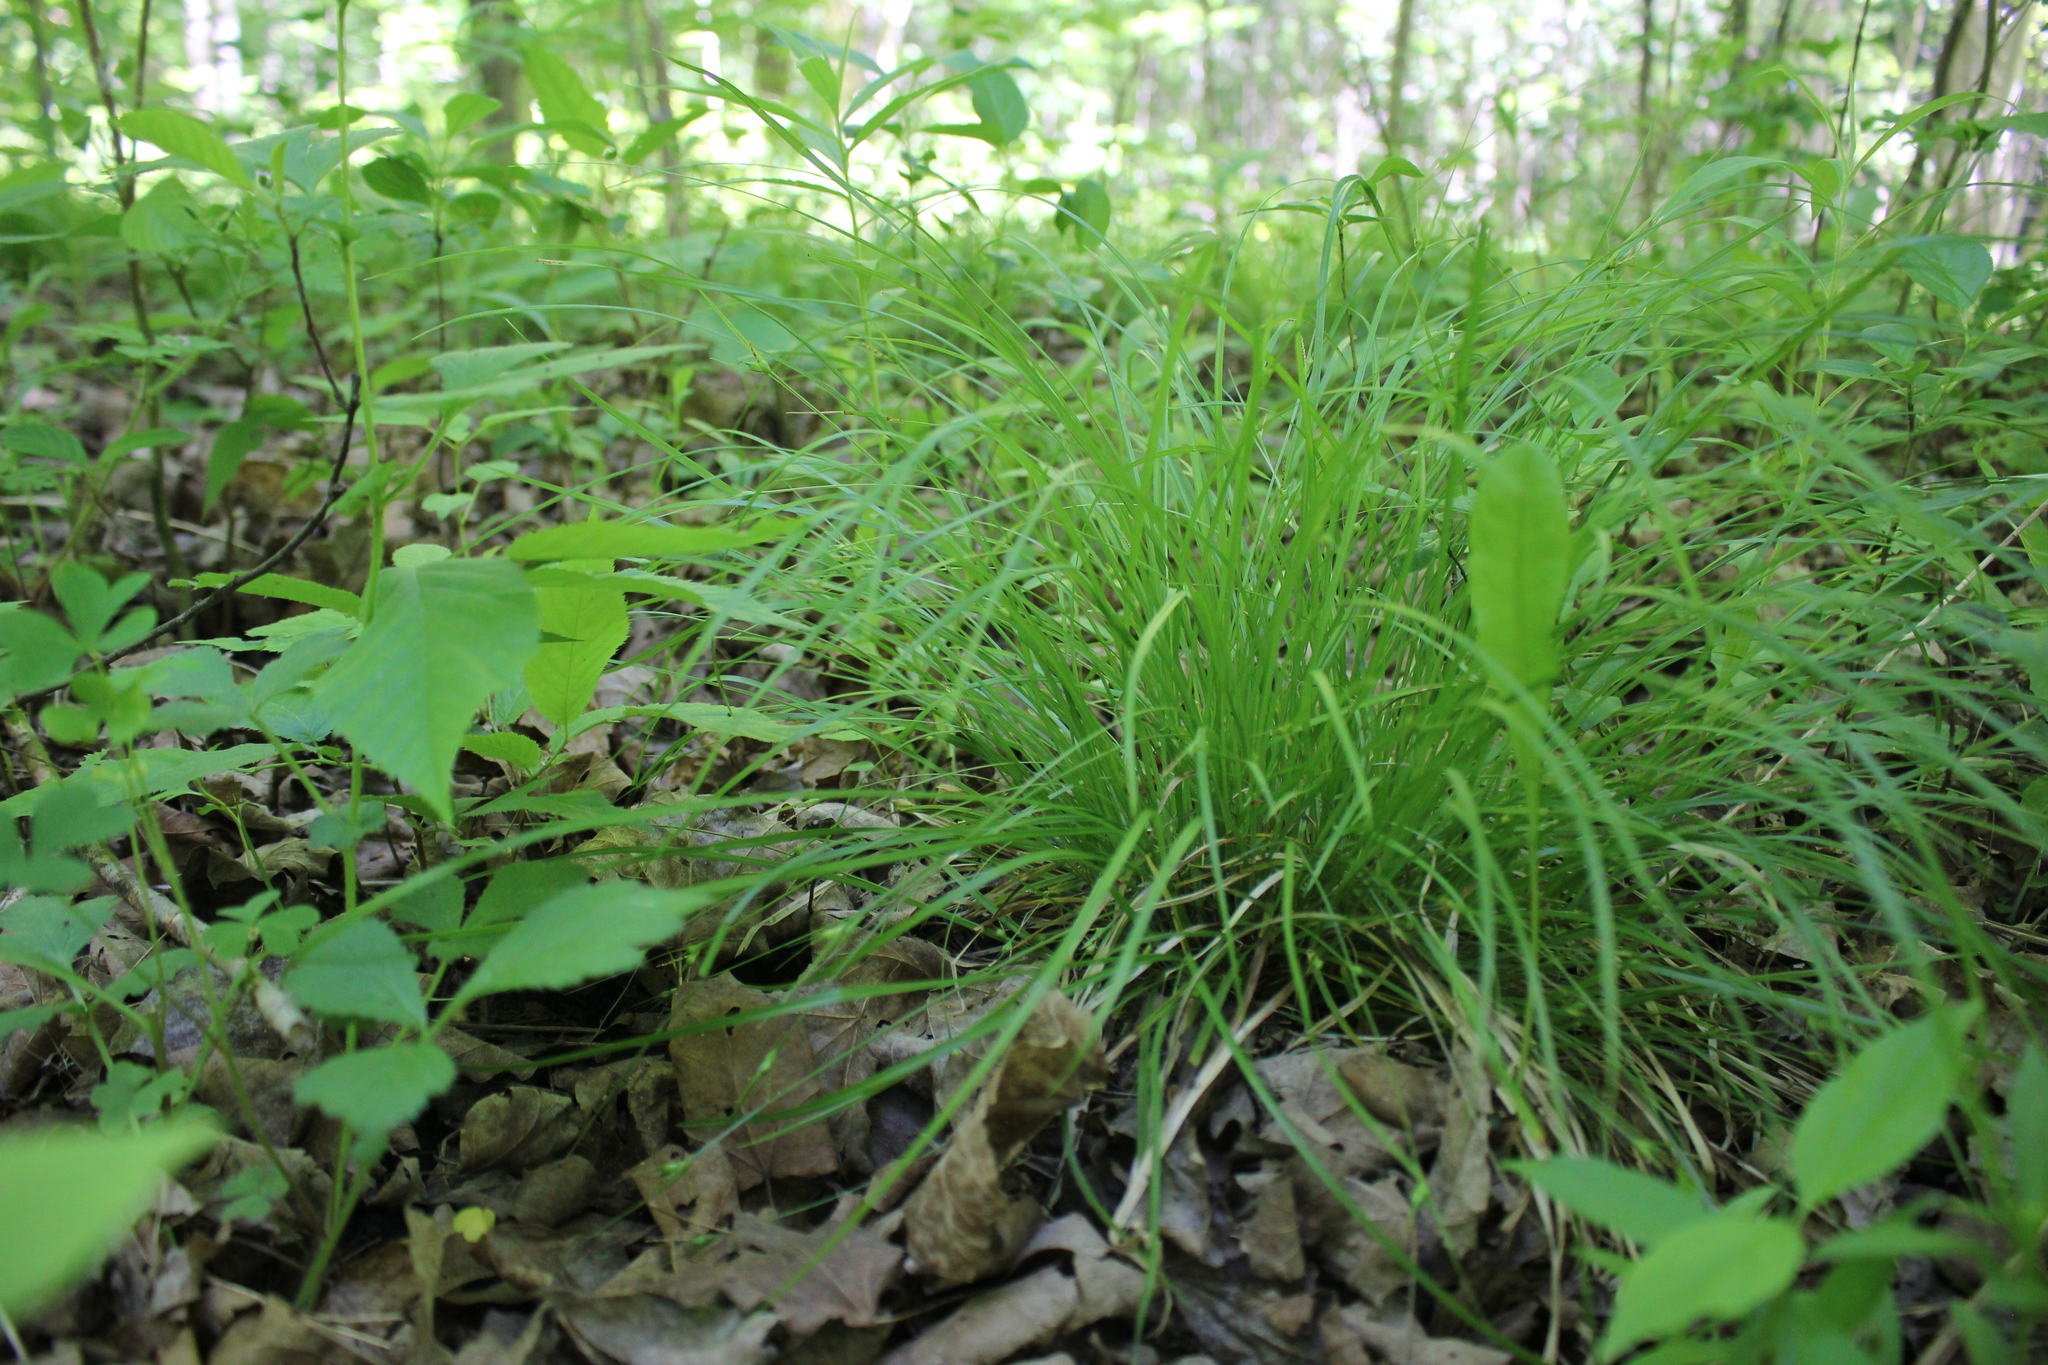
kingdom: Plantae
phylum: Tracheophyta
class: Liliopsida
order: Poales
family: Cyperaceae
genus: Carex
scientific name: Carex jamesii
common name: Grass sedge
